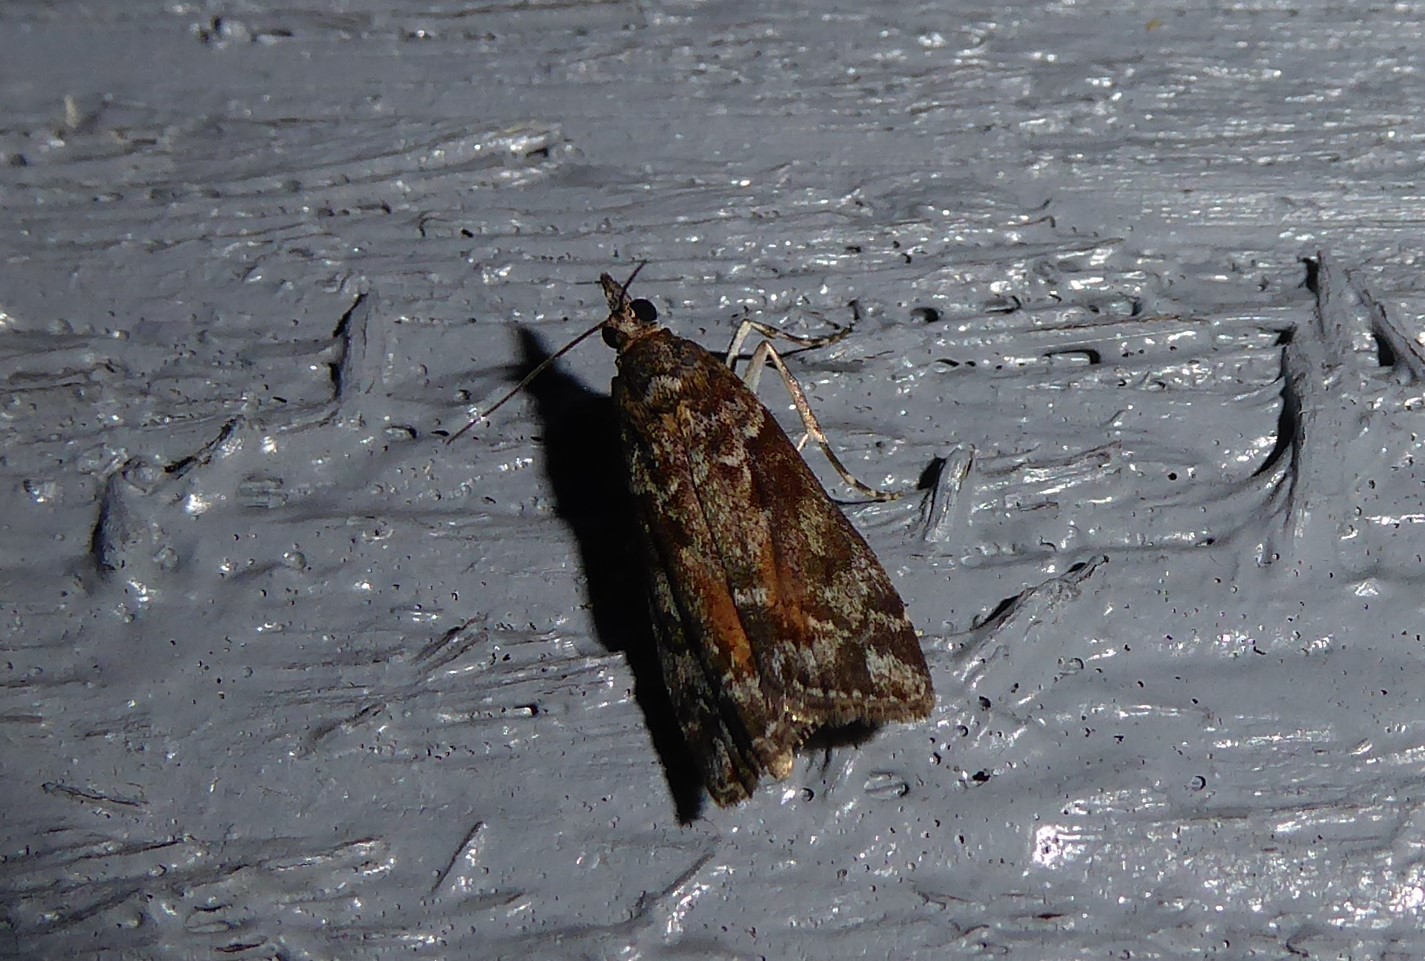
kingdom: Animalia
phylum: Arthropoda
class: Insecta
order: Lepidoptera
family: Crambidae
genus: Eudonia
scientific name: Eudonia submarginalis
